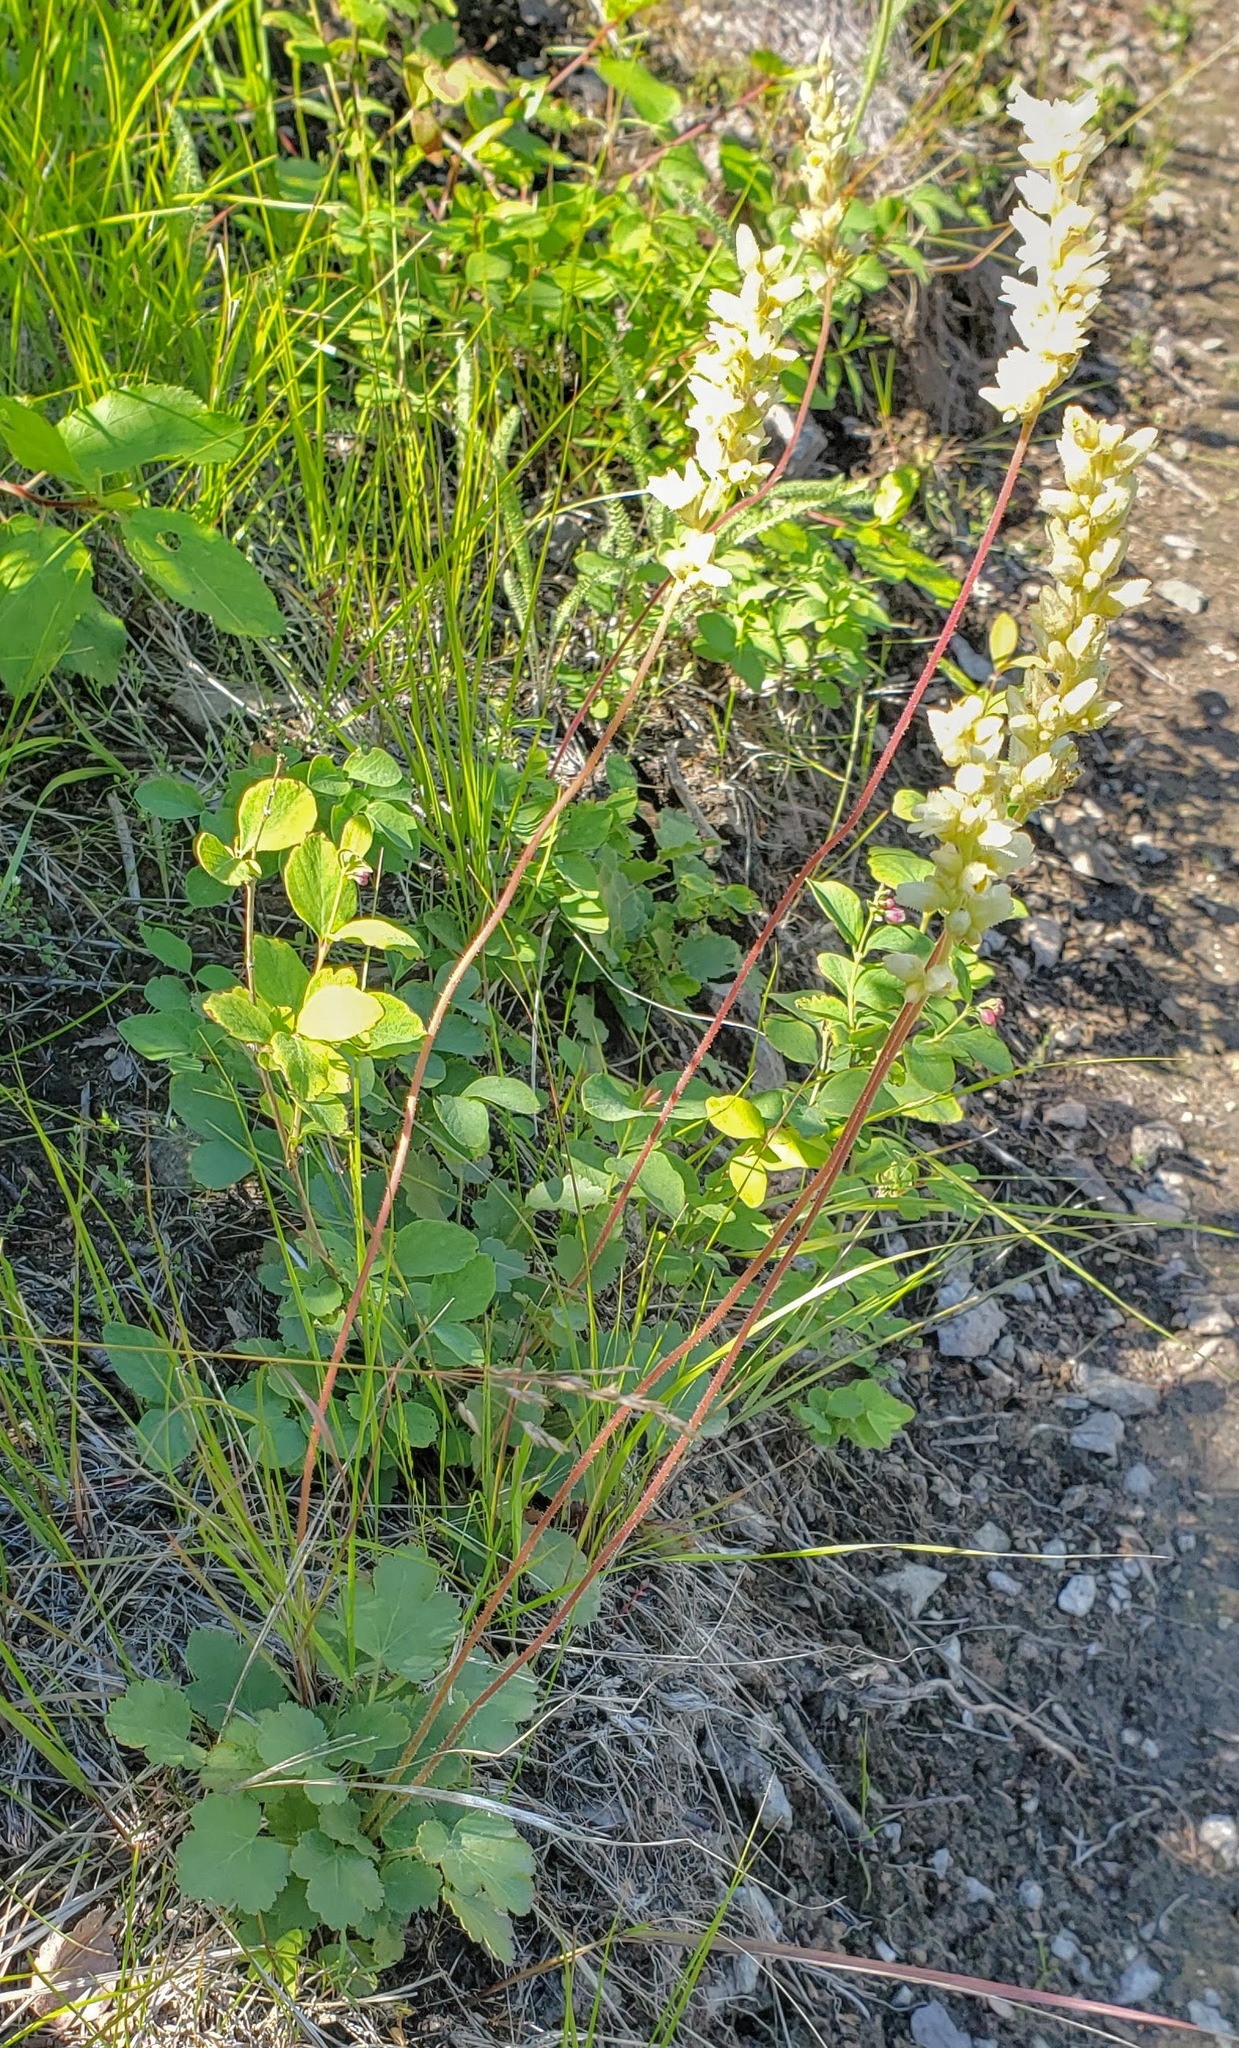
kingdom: Plantae
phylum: Tracheophyta
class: Magnoliopsida
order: Saxifragales
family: Saxifragaceae
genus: Heuchera
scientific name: Heuchera cylindrica
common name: Mat alumroot
